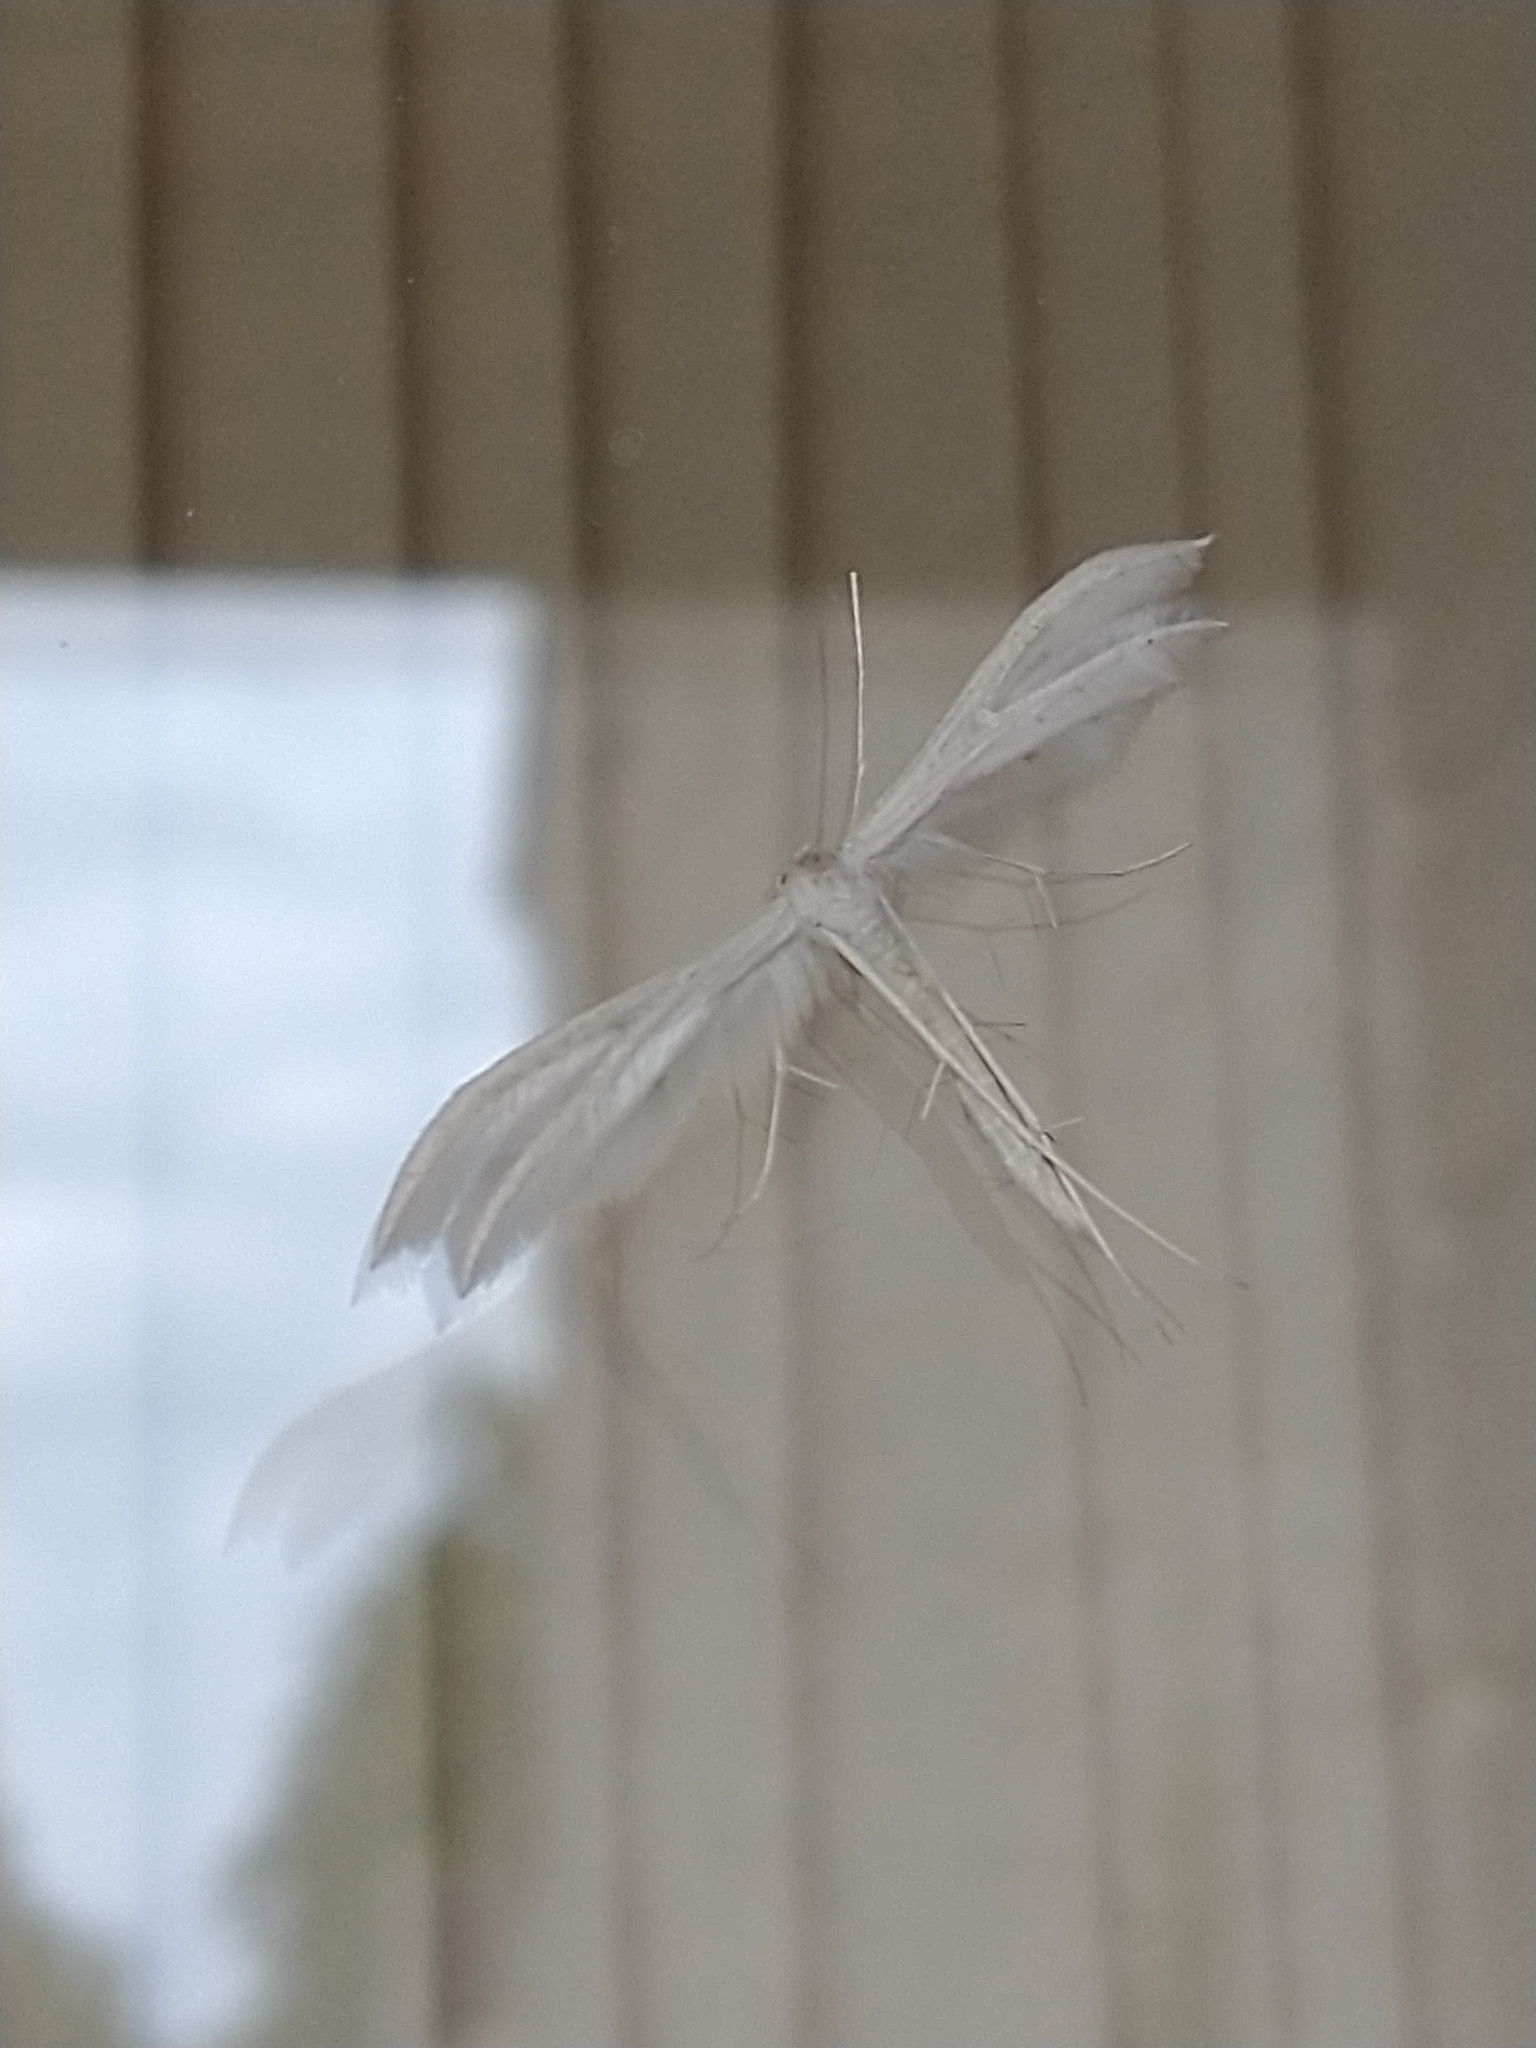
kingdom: Animalia
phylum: Arthropoda
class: Insecta
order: Lepidoptera
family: Pterophoridae
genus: Pterophorus
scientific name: Pterophorus pentadactyla
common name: White plume moth
